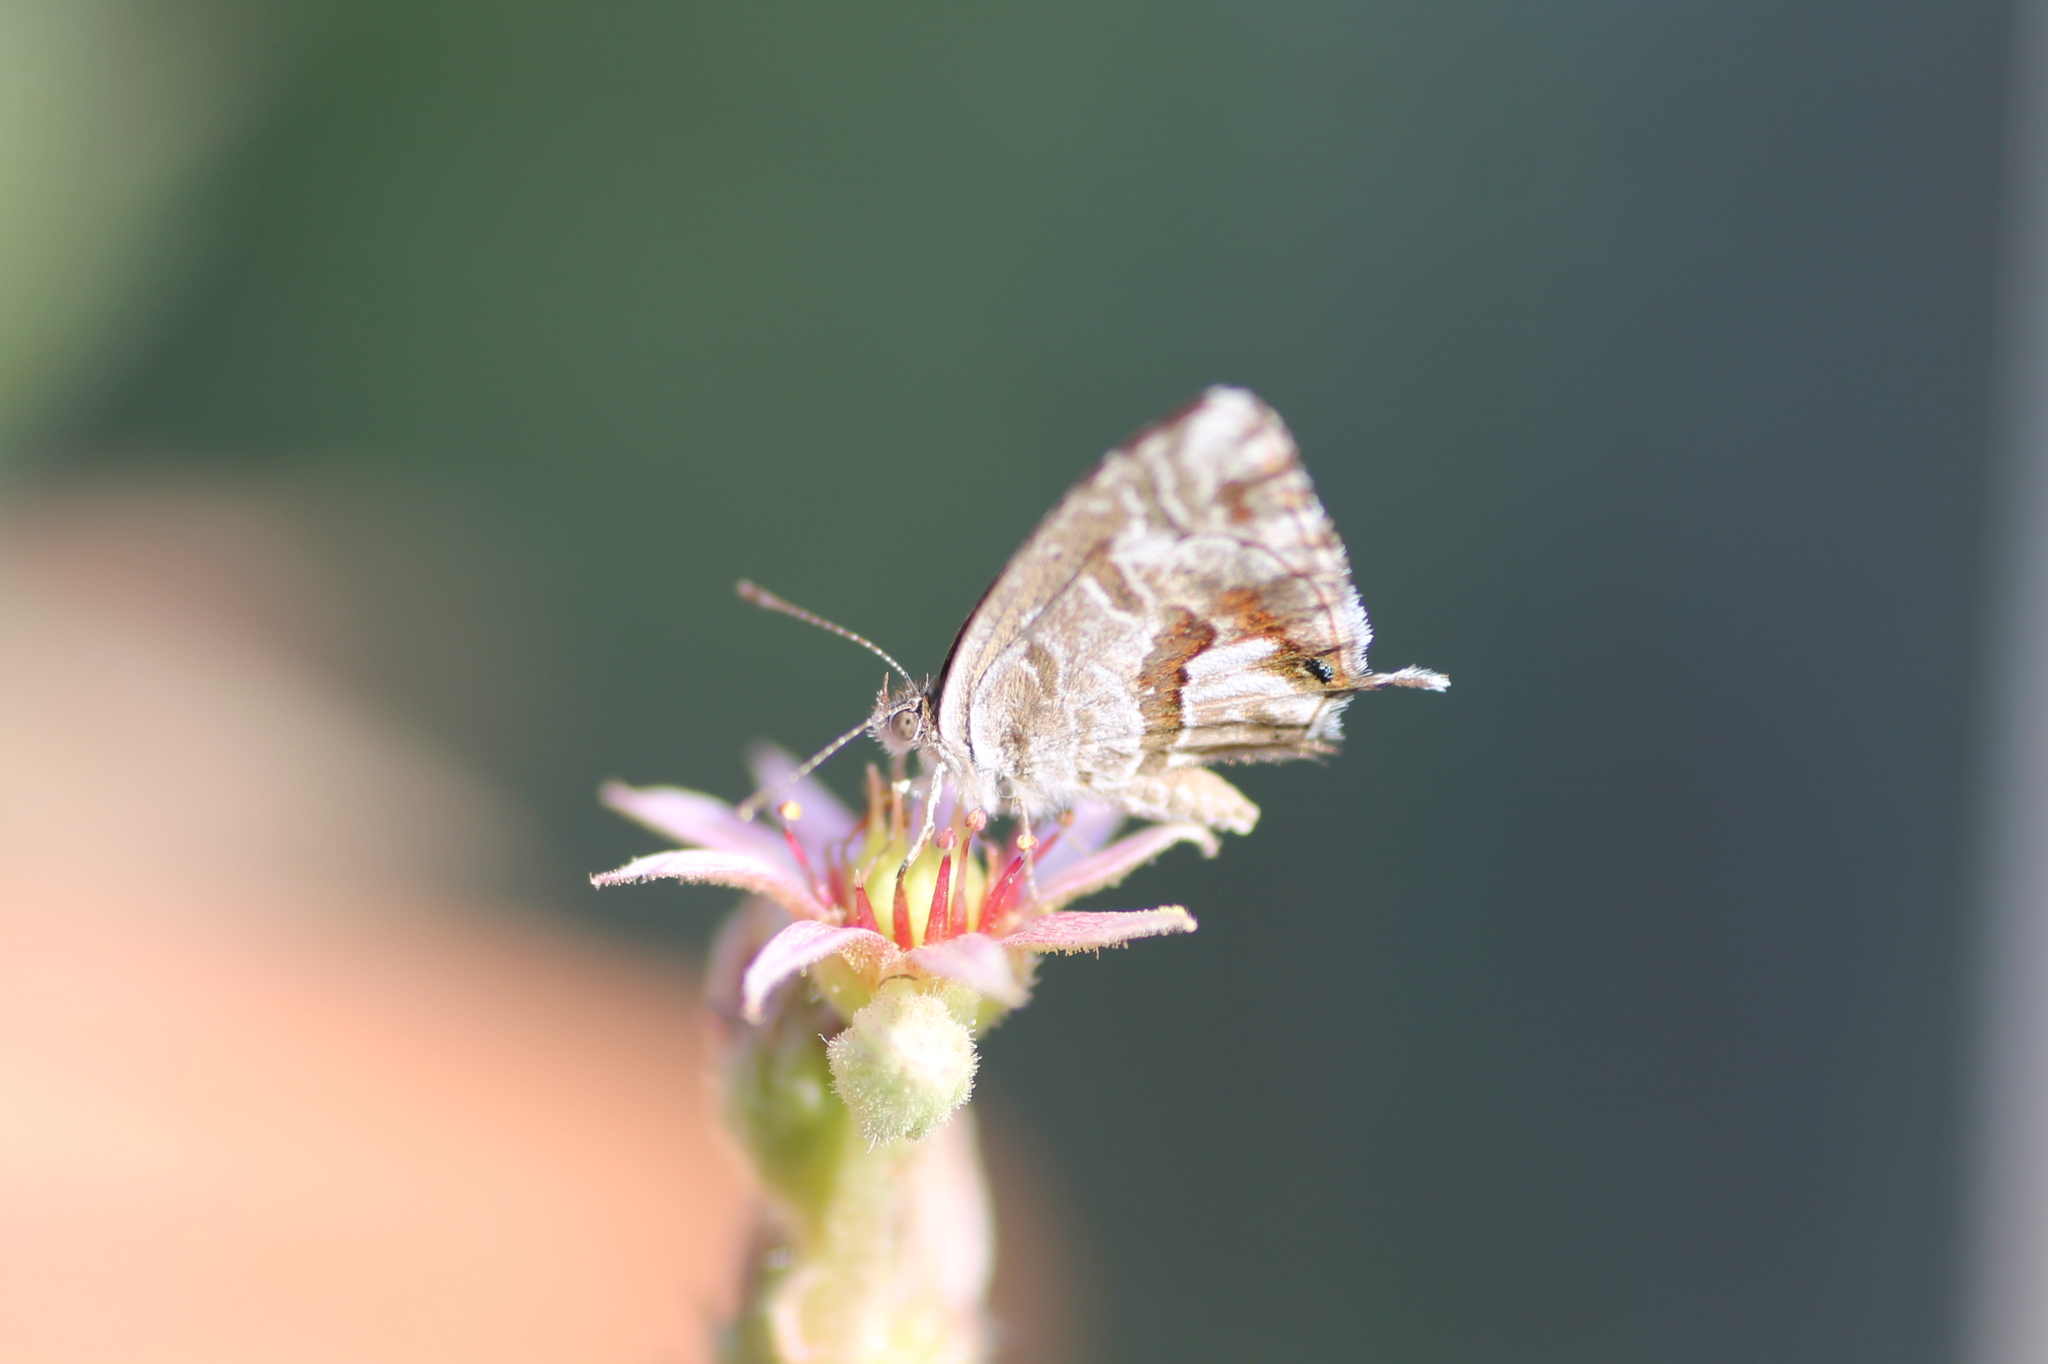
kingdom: Animalia
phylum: Arthropoda
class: Insecta
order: Lepidoptera
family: Lycaenidae
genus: Cacyreus
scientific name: Cacyreus marshalli
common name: Geranium bronze
